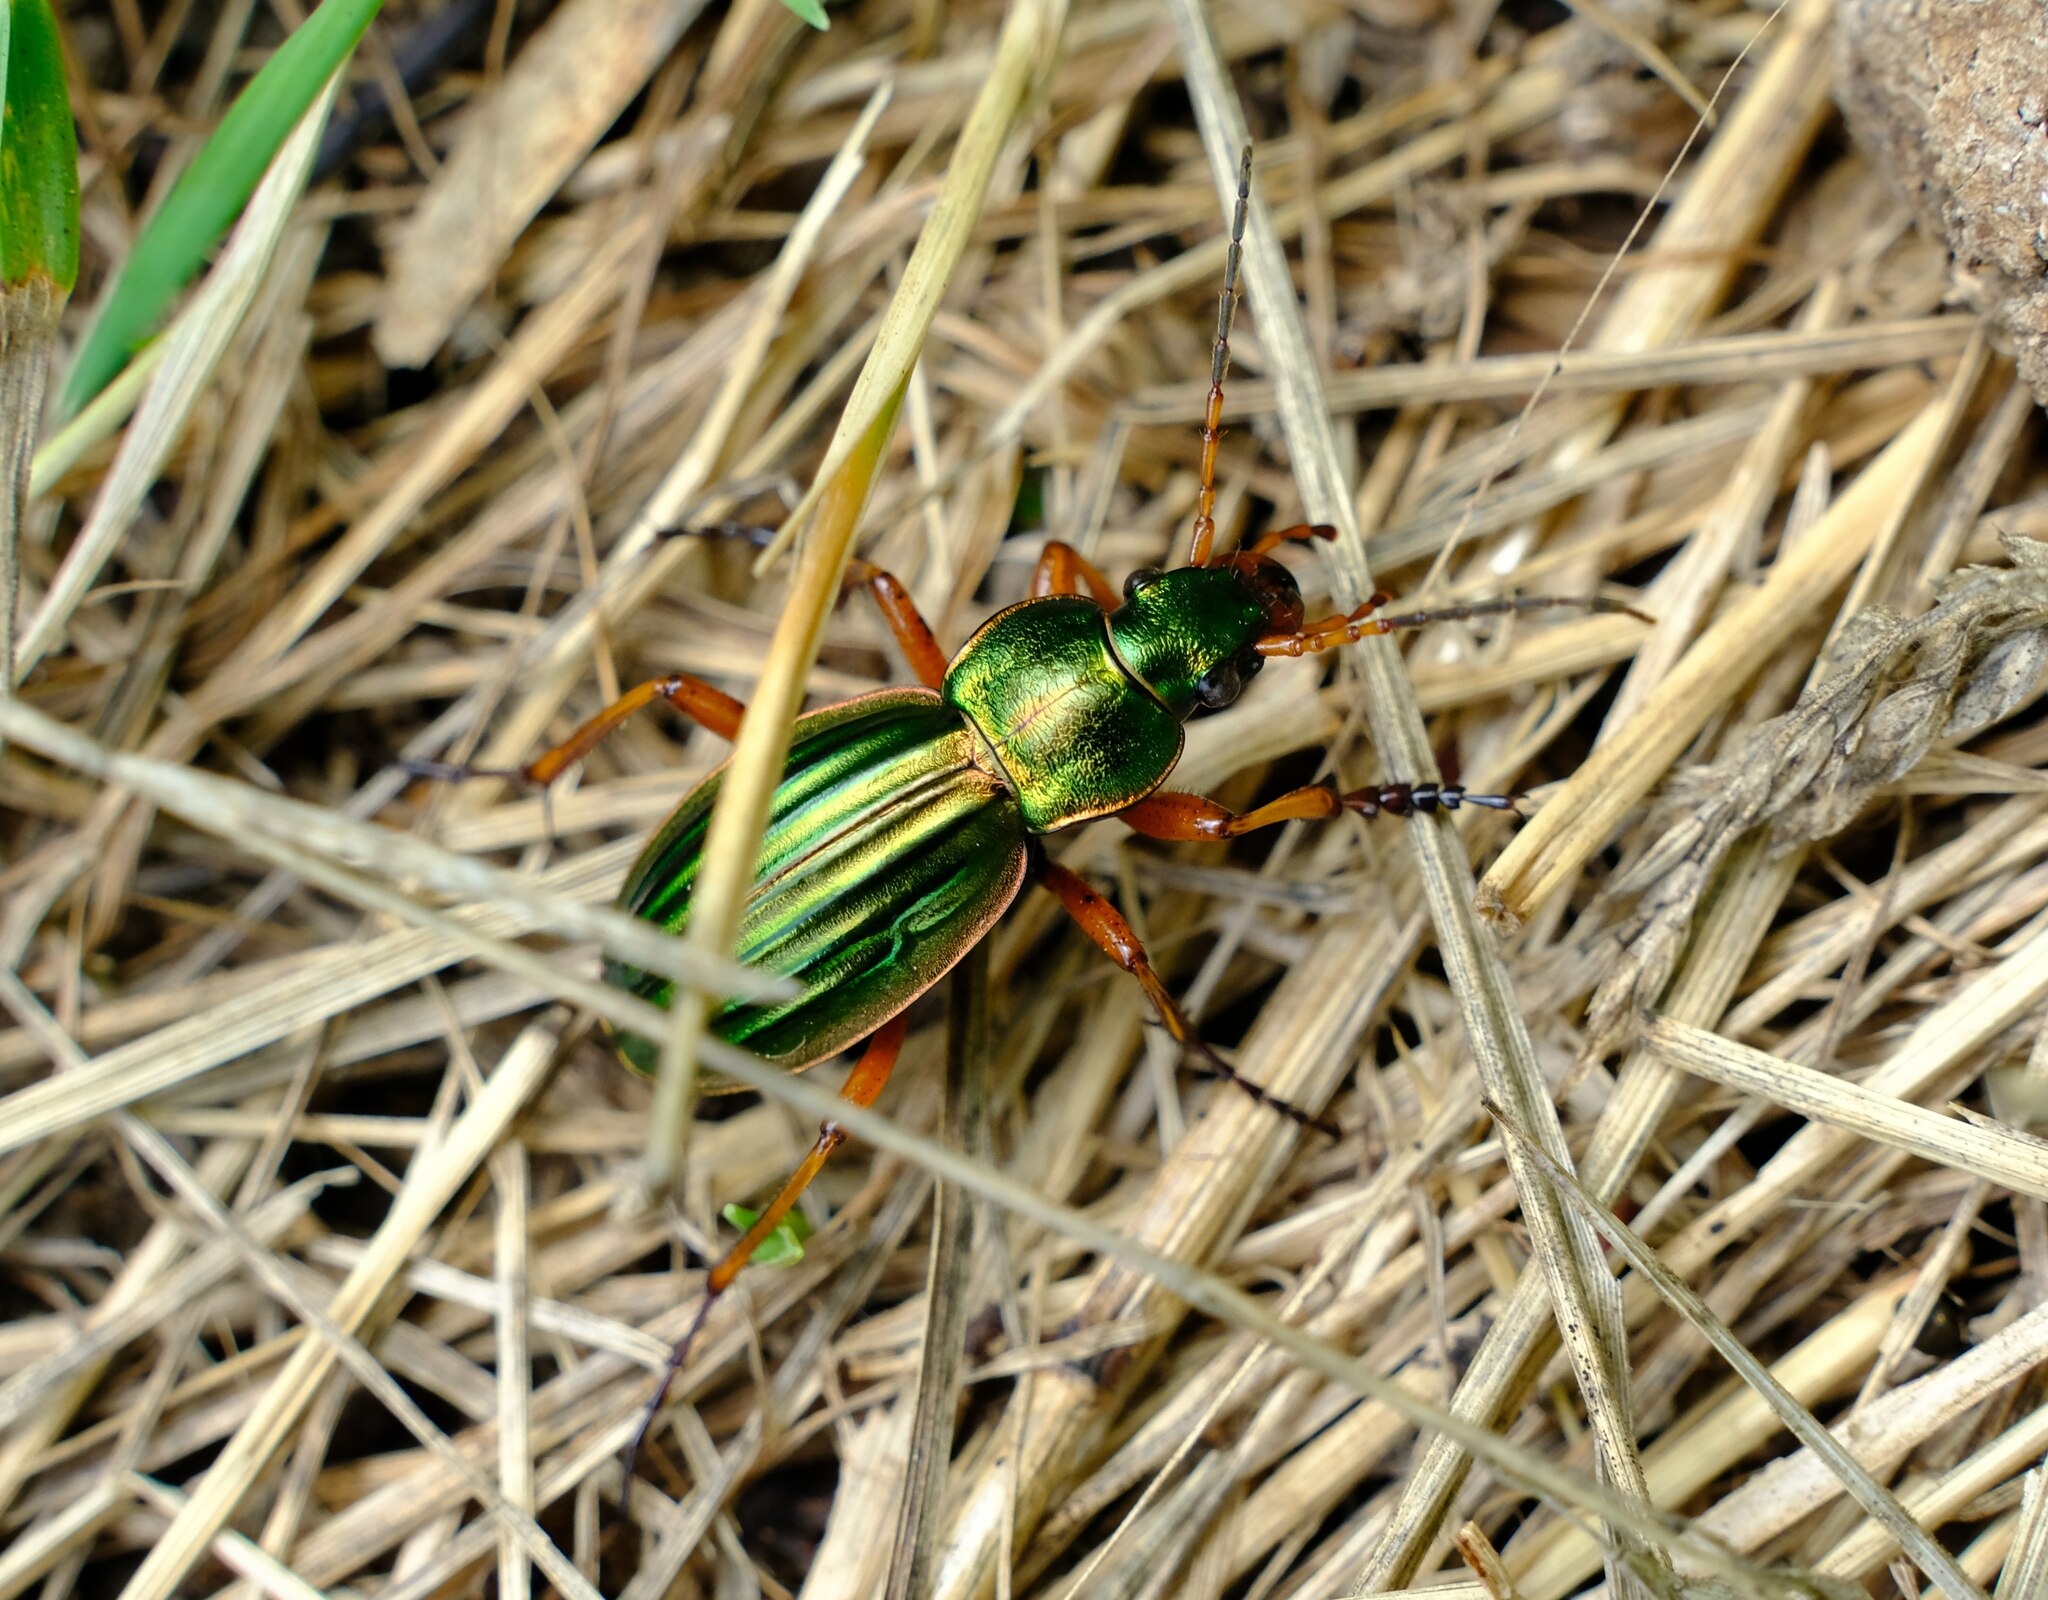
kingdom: Animalia
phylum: Arthropoda
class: Insecta
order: Coleoptera
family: Carabidae
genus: Carabus
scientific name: Carabus auratus
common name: Golden ground beetle
